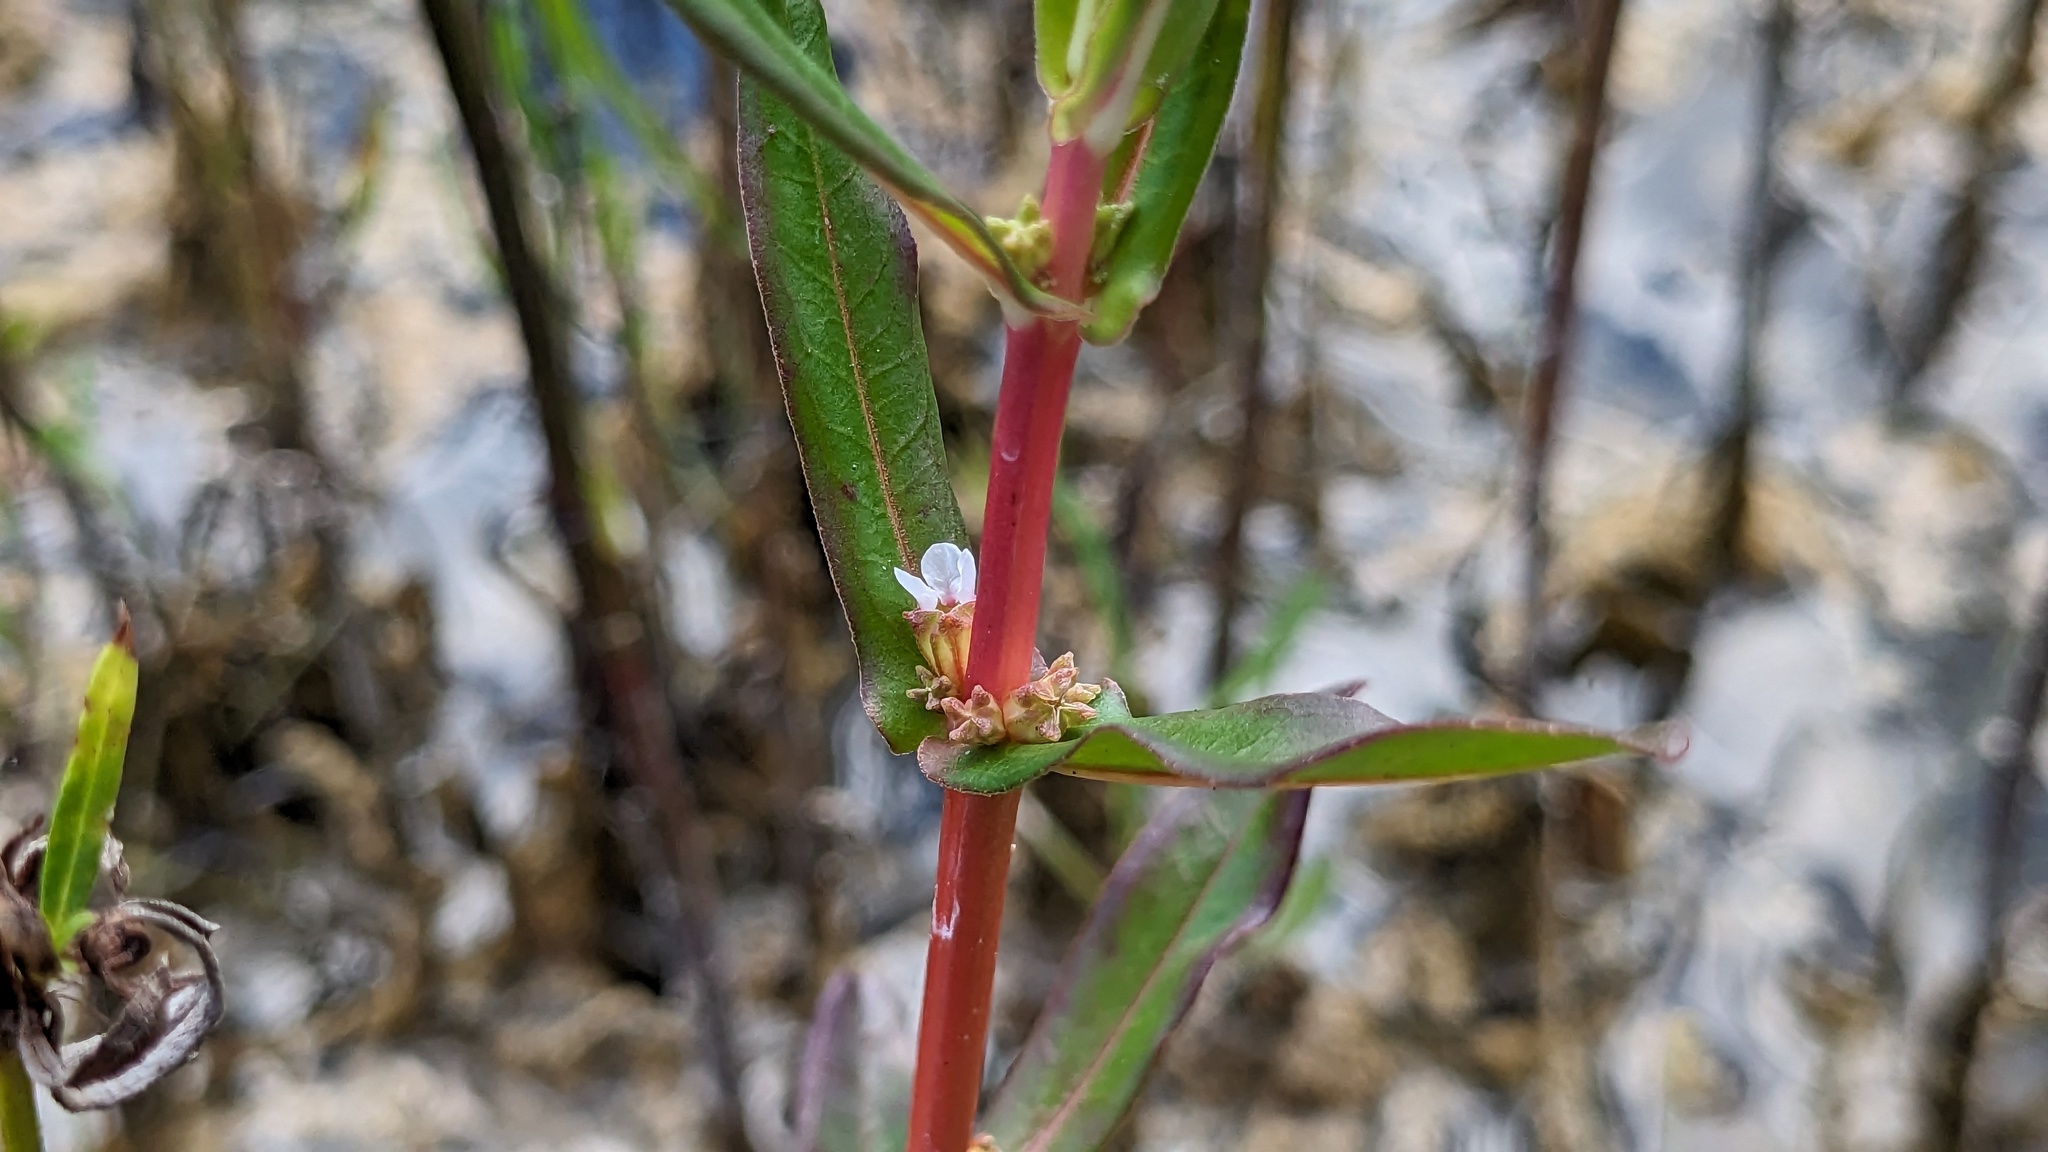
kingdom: Plantae
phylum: Tracheophyta
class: Magnoliopsida
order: Myrtales
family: Lythraceae
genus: Ammannia
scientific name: Ammannia latifolia
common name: Toothcup
